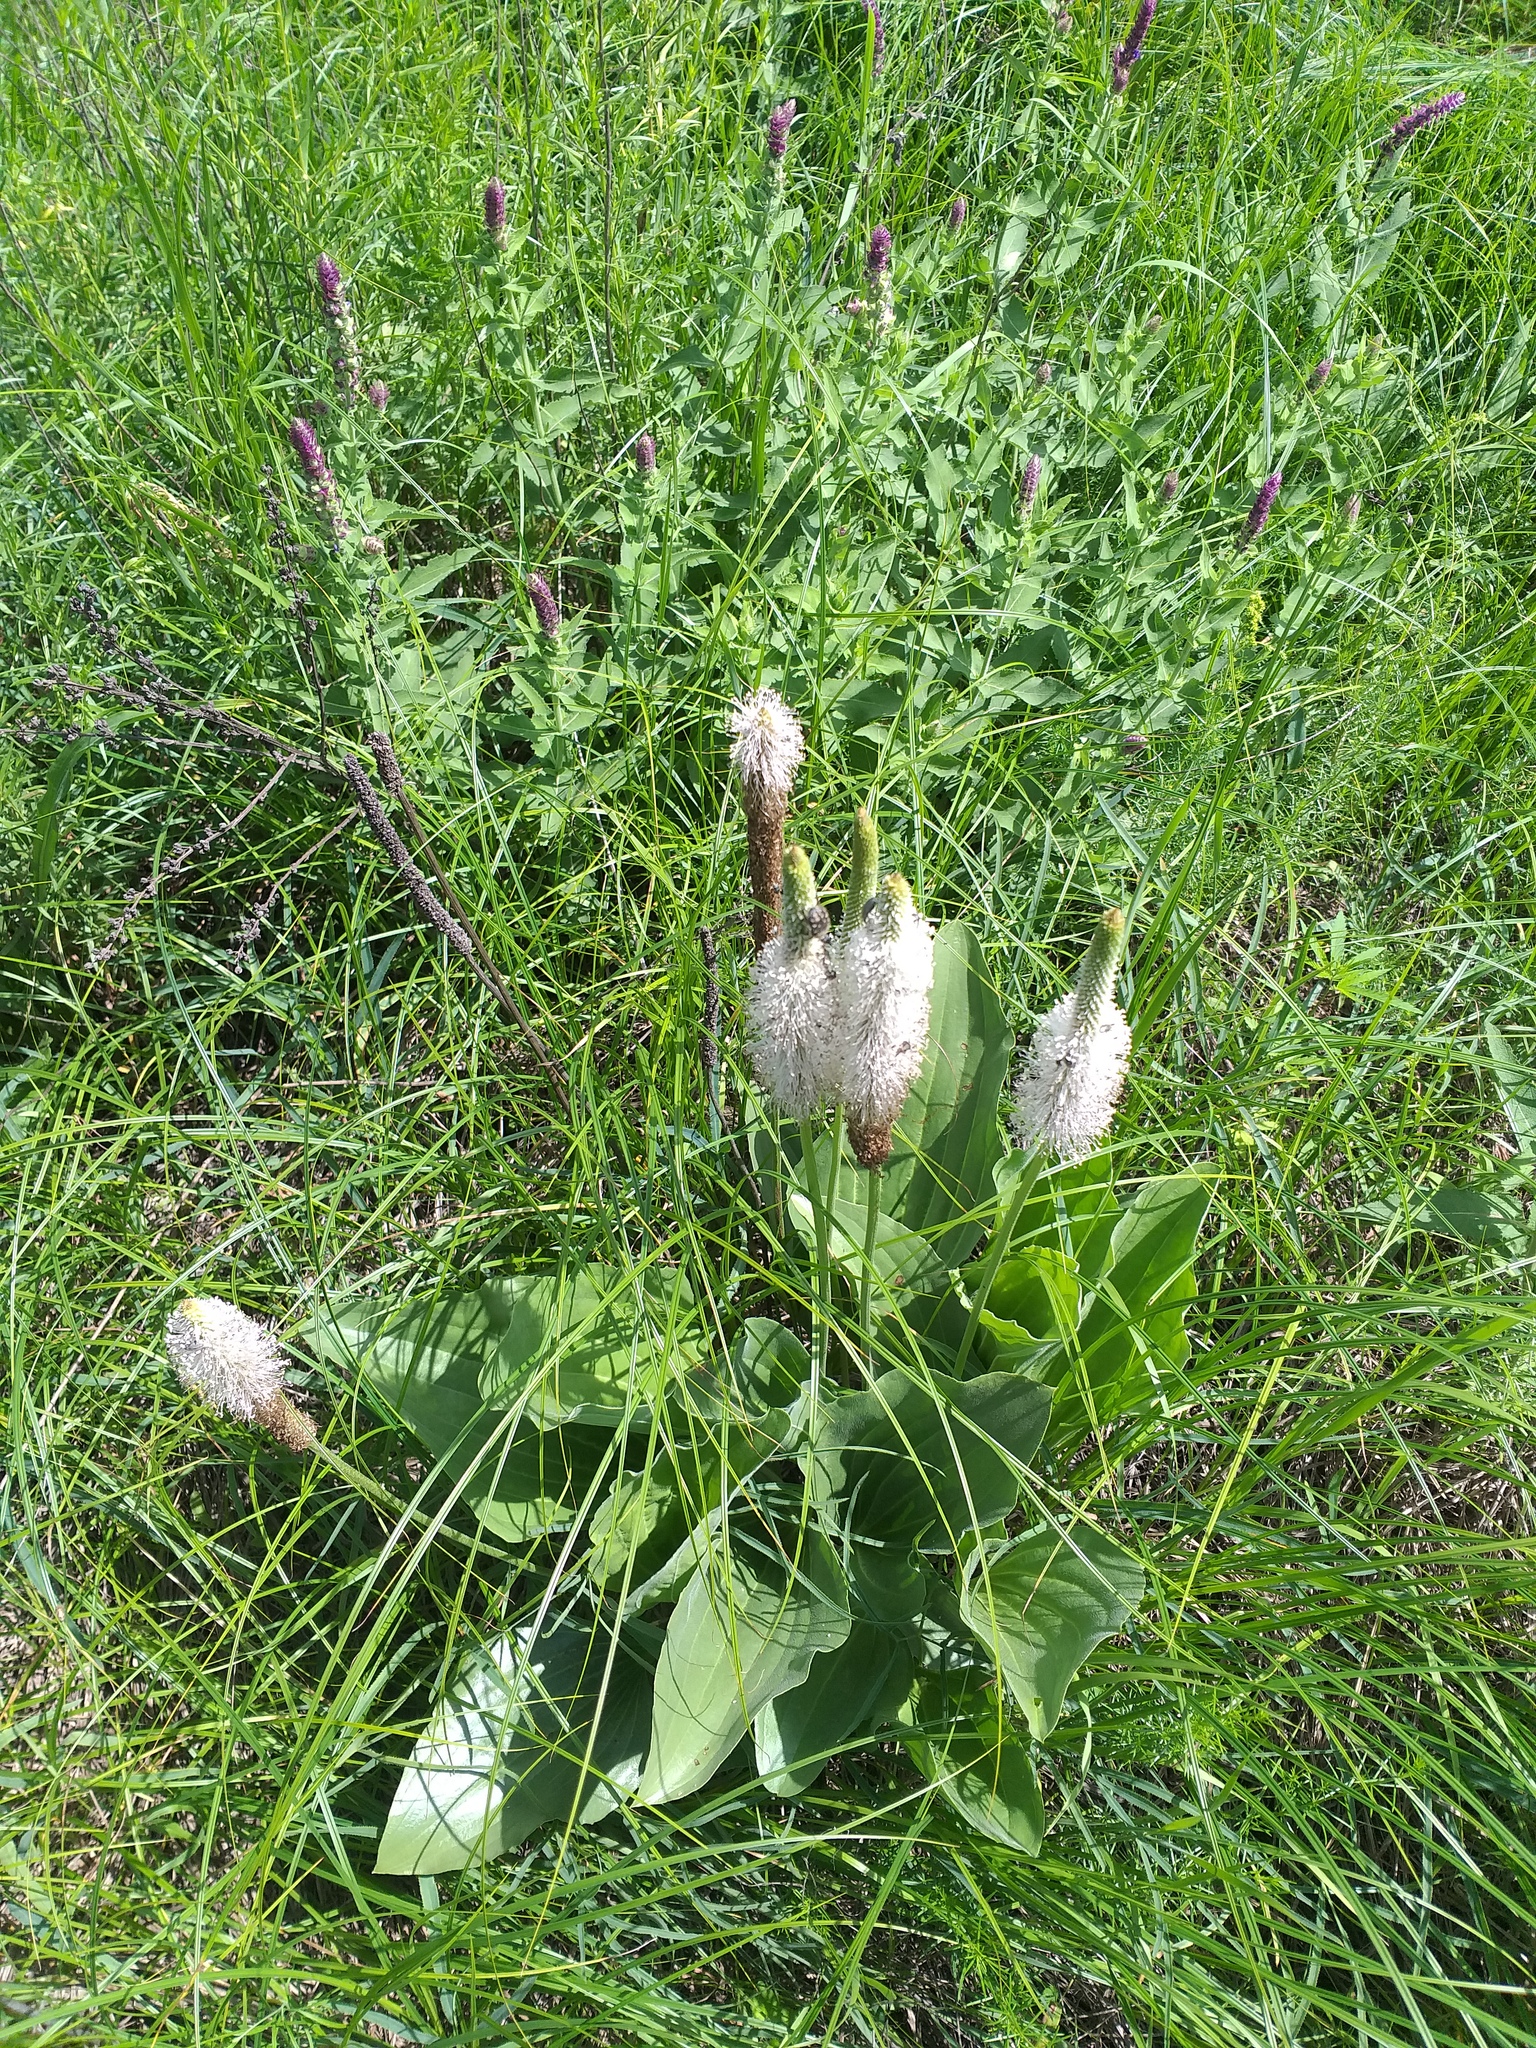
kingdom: Plantae
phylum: Tracheophyta
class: Magnoliopsida
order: Lamiales
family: Plantaginaceae
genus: Plantago
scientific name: Plantago maxima
